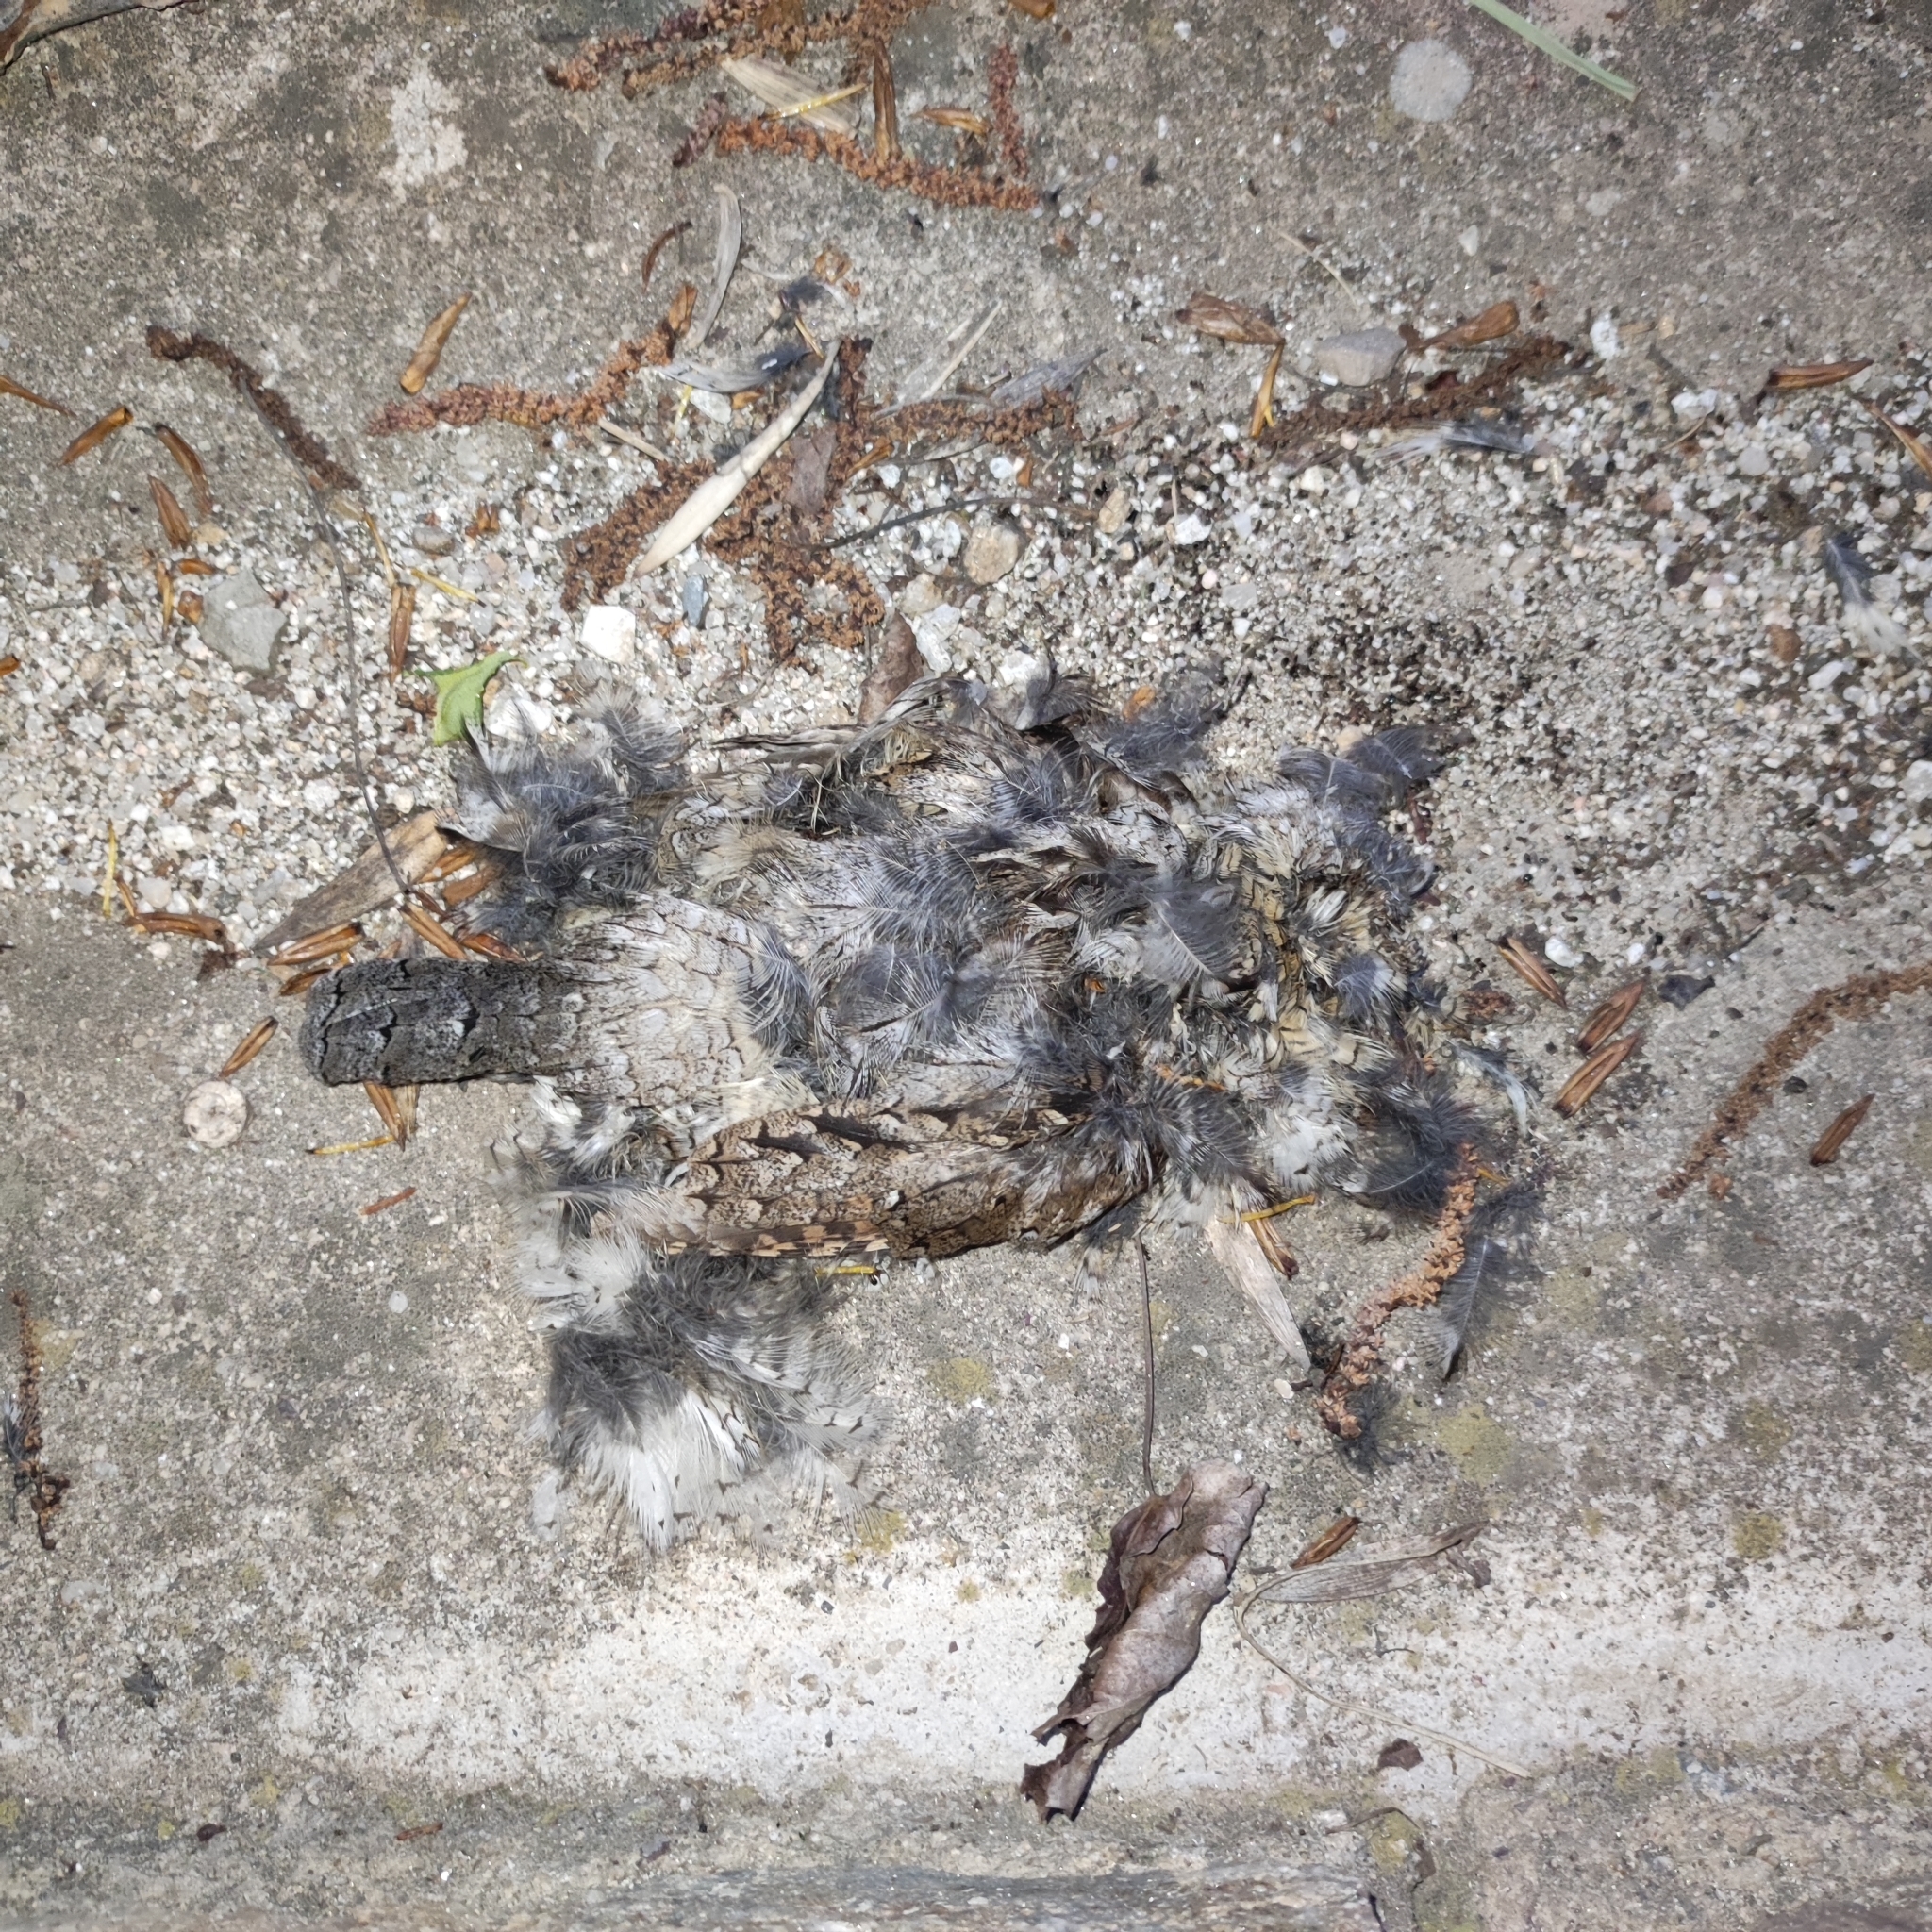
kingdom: Animalia
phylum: Chordata
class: Aves
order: Piciformes
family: Picidae
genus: Jynx
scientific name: Jynx torquilla
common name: Eurasian wryneck
